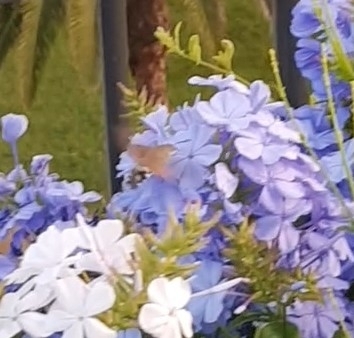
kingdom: Animalia
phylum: Arthropoda
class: Insecta
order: Lepidoptera
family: Sphingidae
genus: Macroglossum
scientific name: Macroglossum stellatarum
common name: Humming-bird hawk-moth
